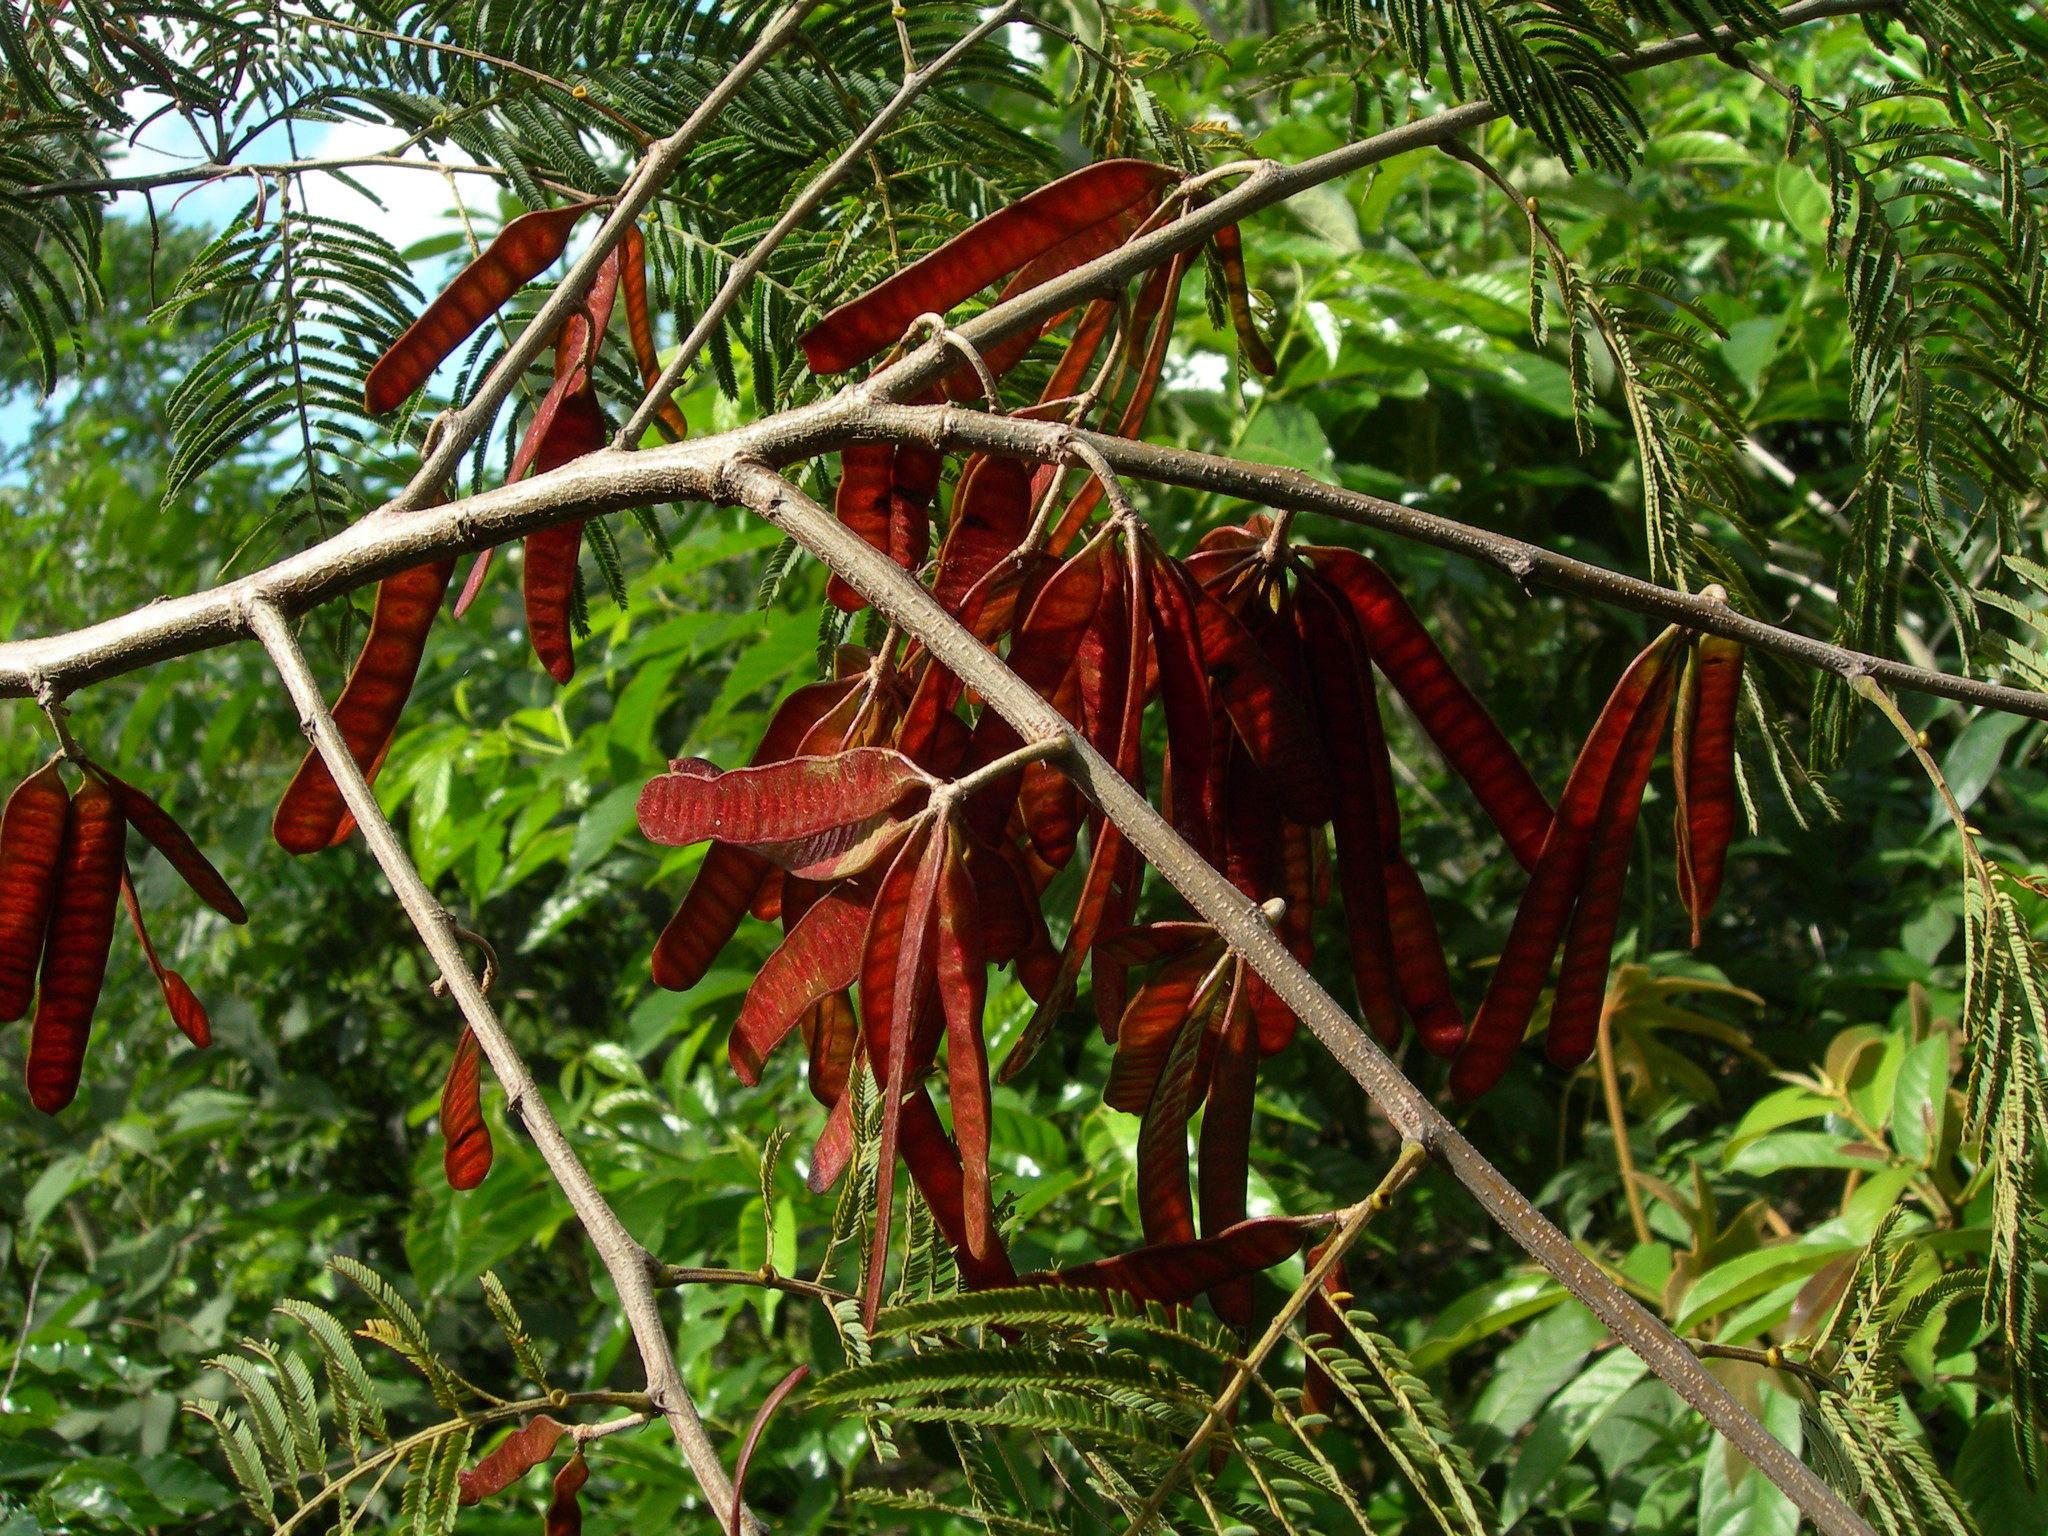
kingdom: Plantae
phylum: Tracheophyta
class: Magnoliopsida
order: Fabales
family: Fabaceae
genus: Leucaena
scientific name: Leucaena diversifolia
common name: Red leucaena
